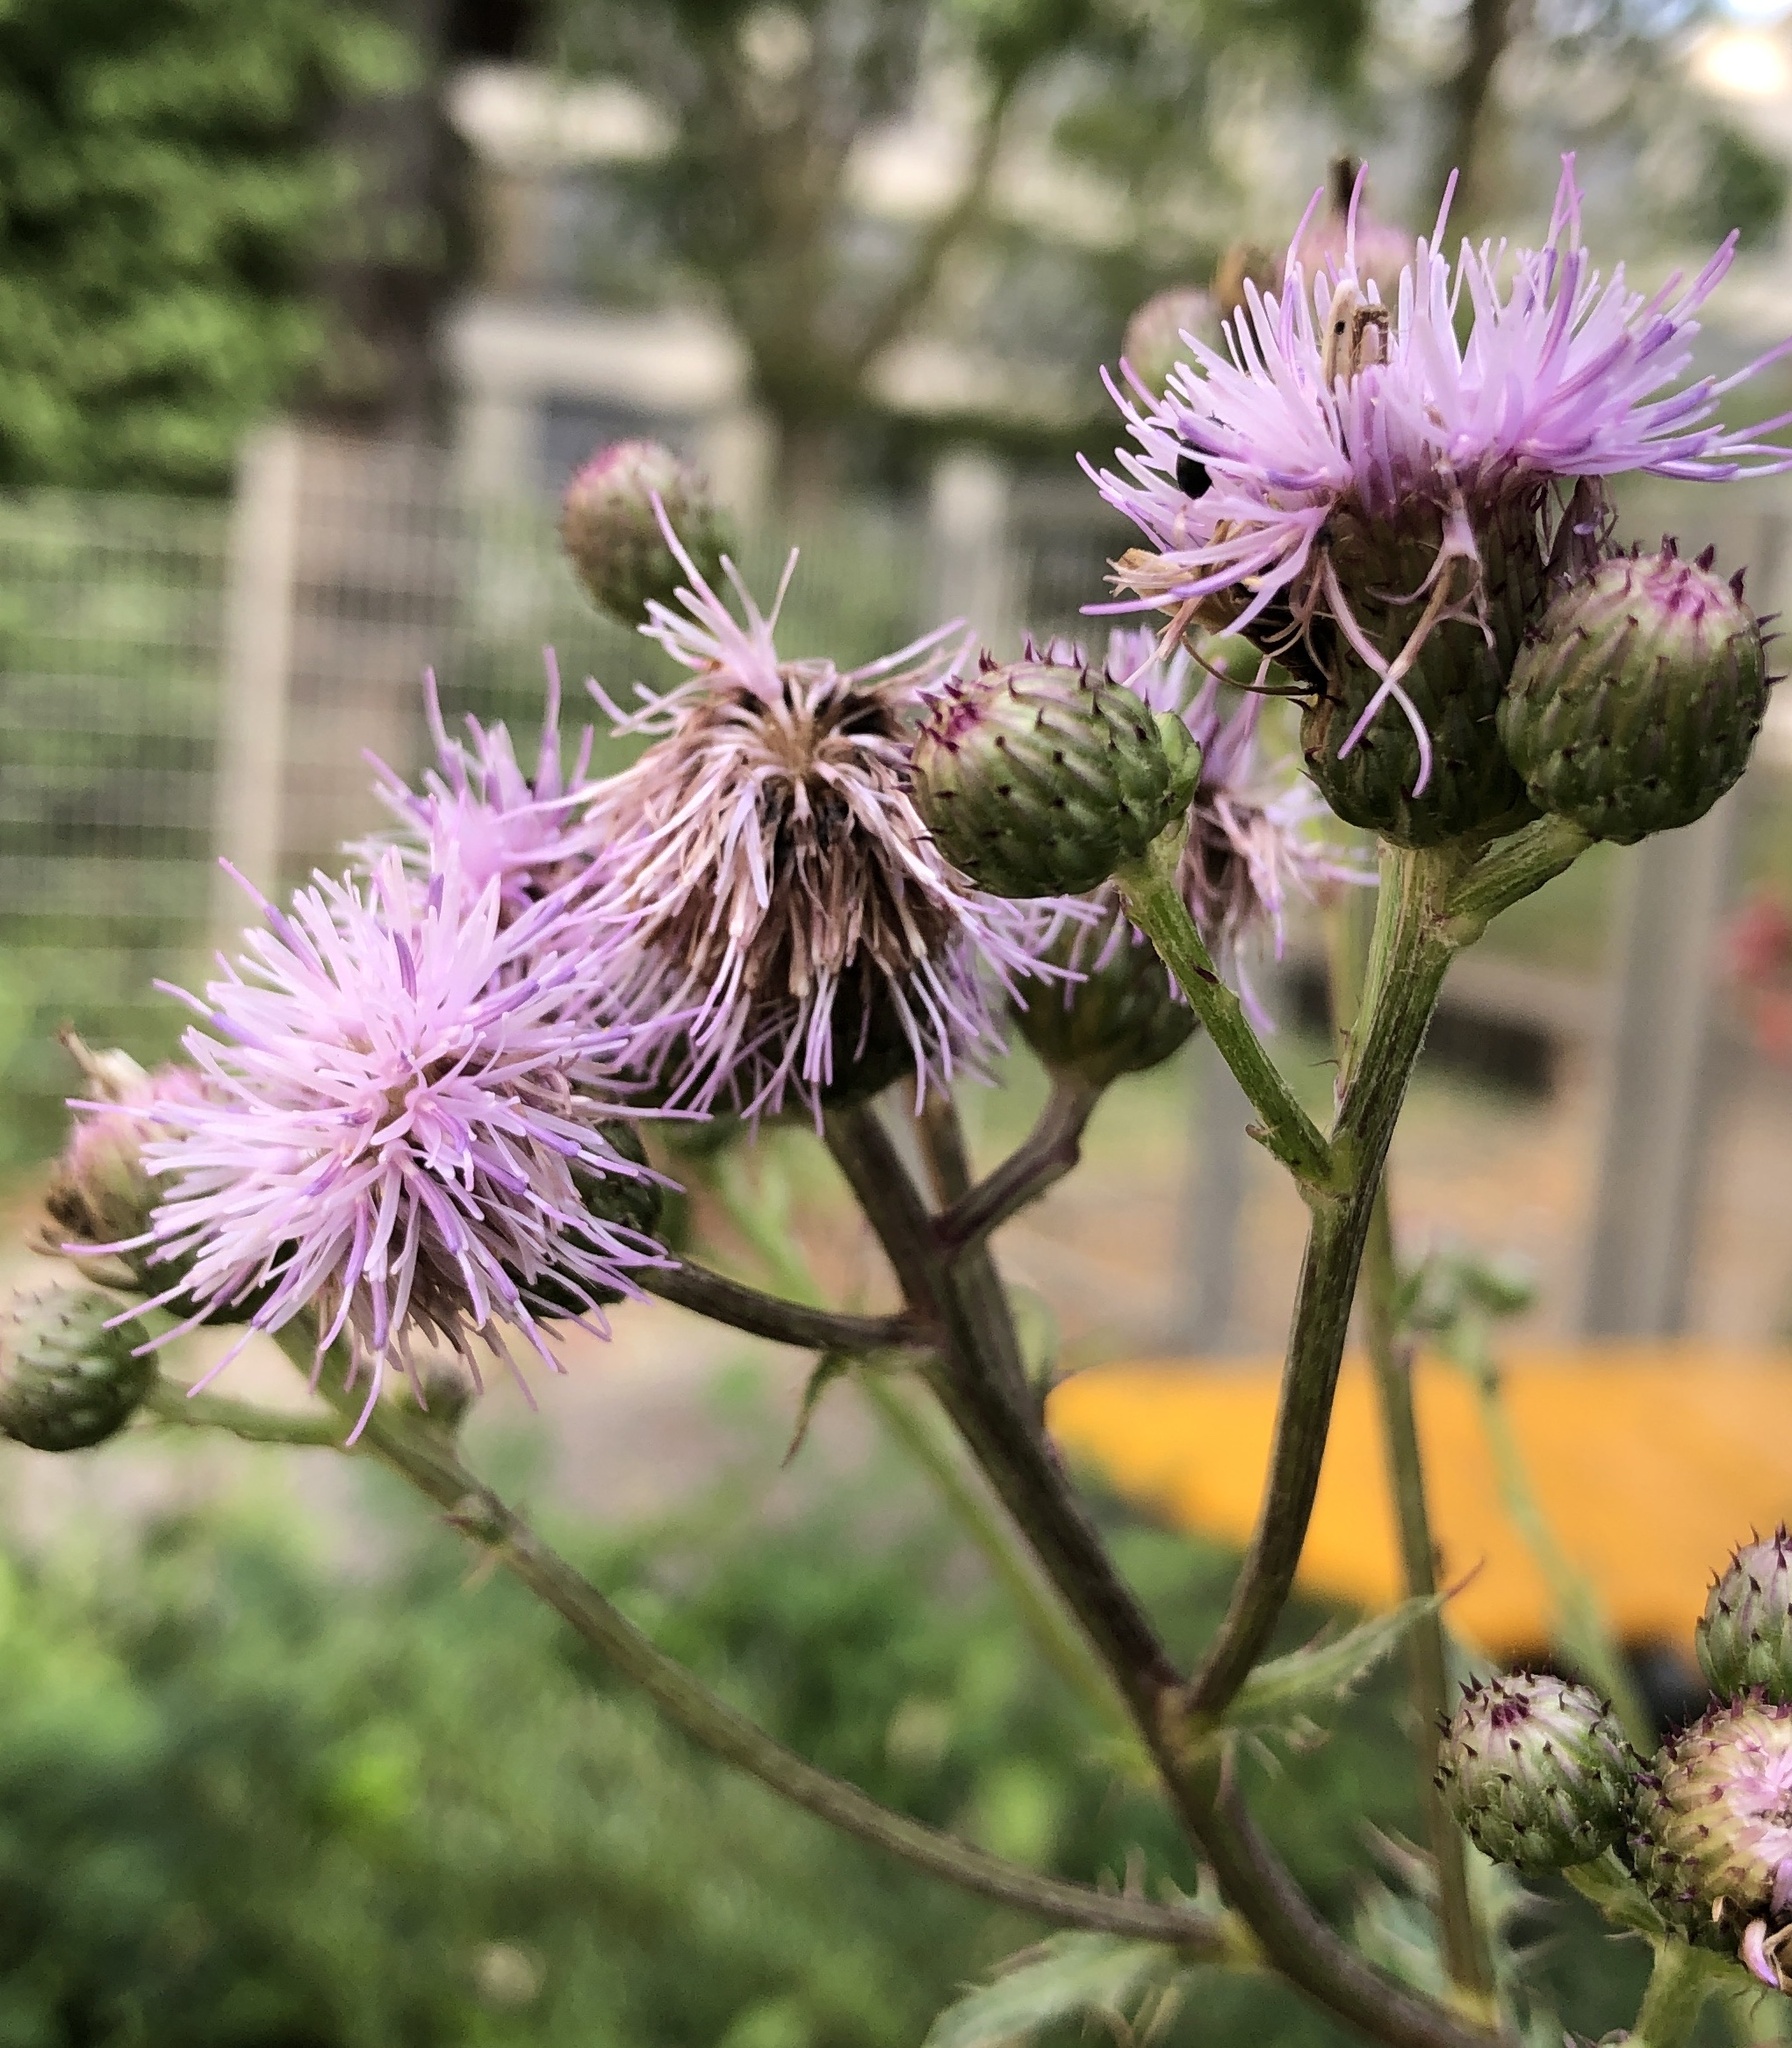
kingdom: Plantae
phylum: Tracheophyta
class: Magnoliopsida
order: Asterales
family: Asteraceae
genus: Cirsium
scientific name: Cirsium arvense
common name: Creeping thistle
